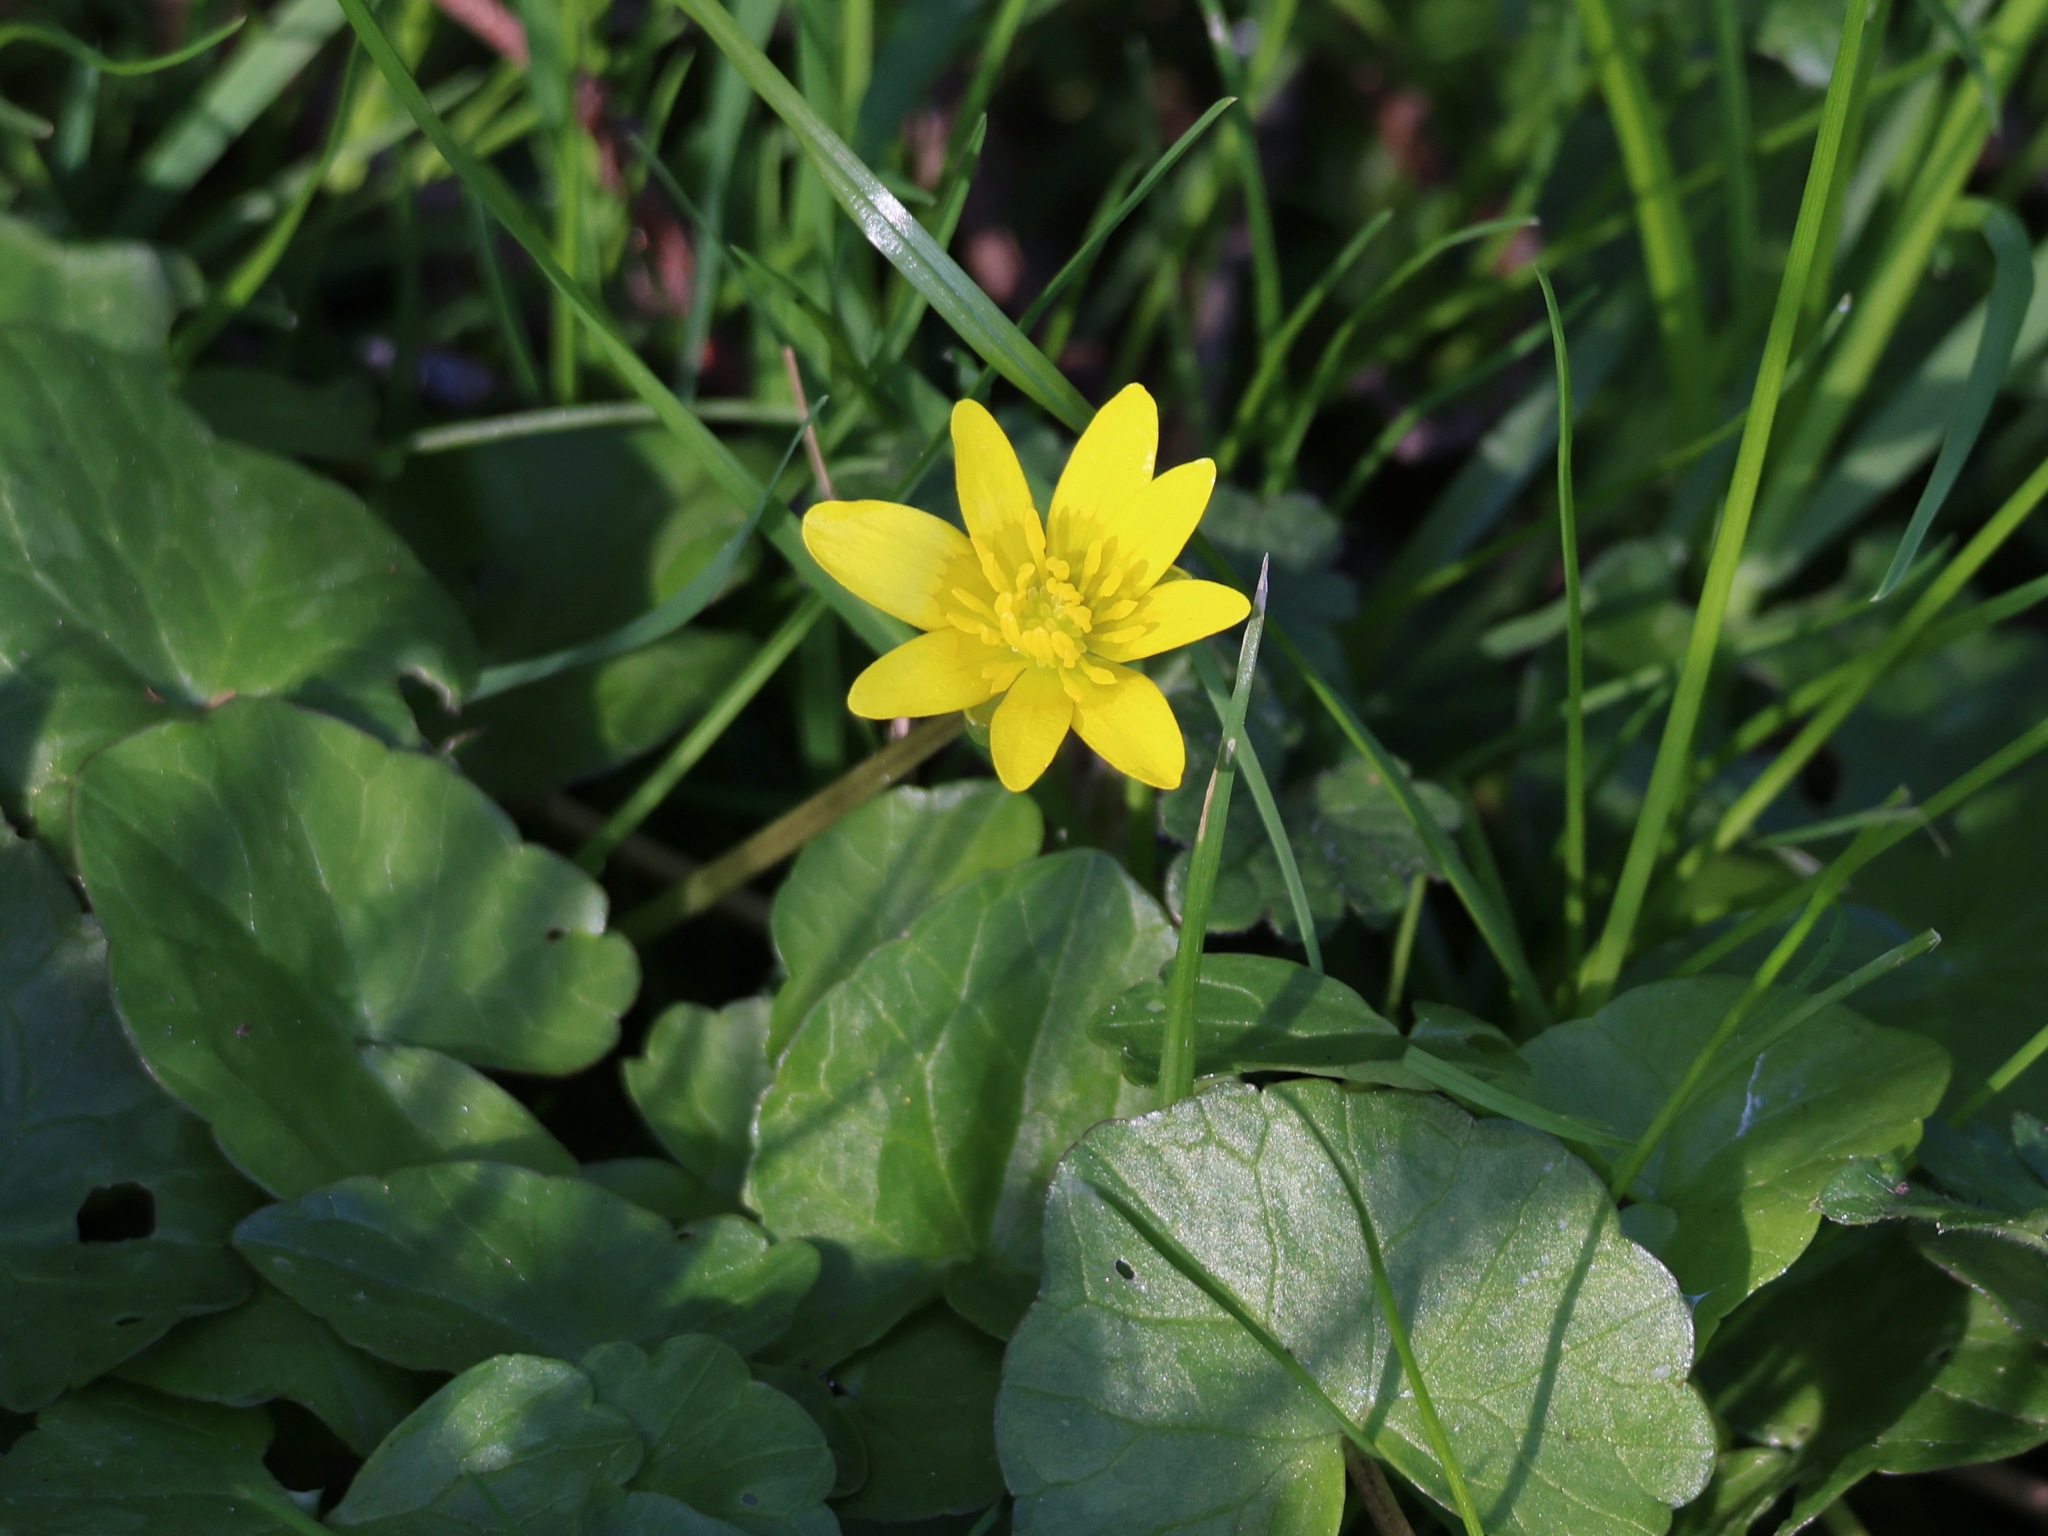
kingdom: Plantae
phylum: Tracheophyta
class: Magnoliopsida
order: Ranunculales
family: Ranunculaceae
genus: Ficaria
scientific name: Ficaria verna
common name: Lesser celandine
